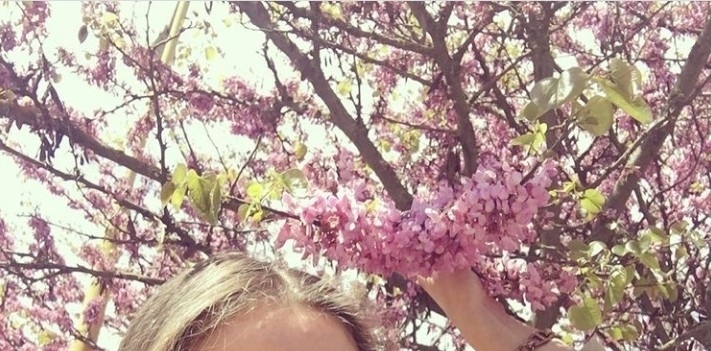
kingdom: Plantae
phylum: Tracheophyta
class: Magnoliopsida
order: Fabales
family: Fabaceae
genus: Cercis
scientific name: Cercis siliquastrum
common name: Judas tree
